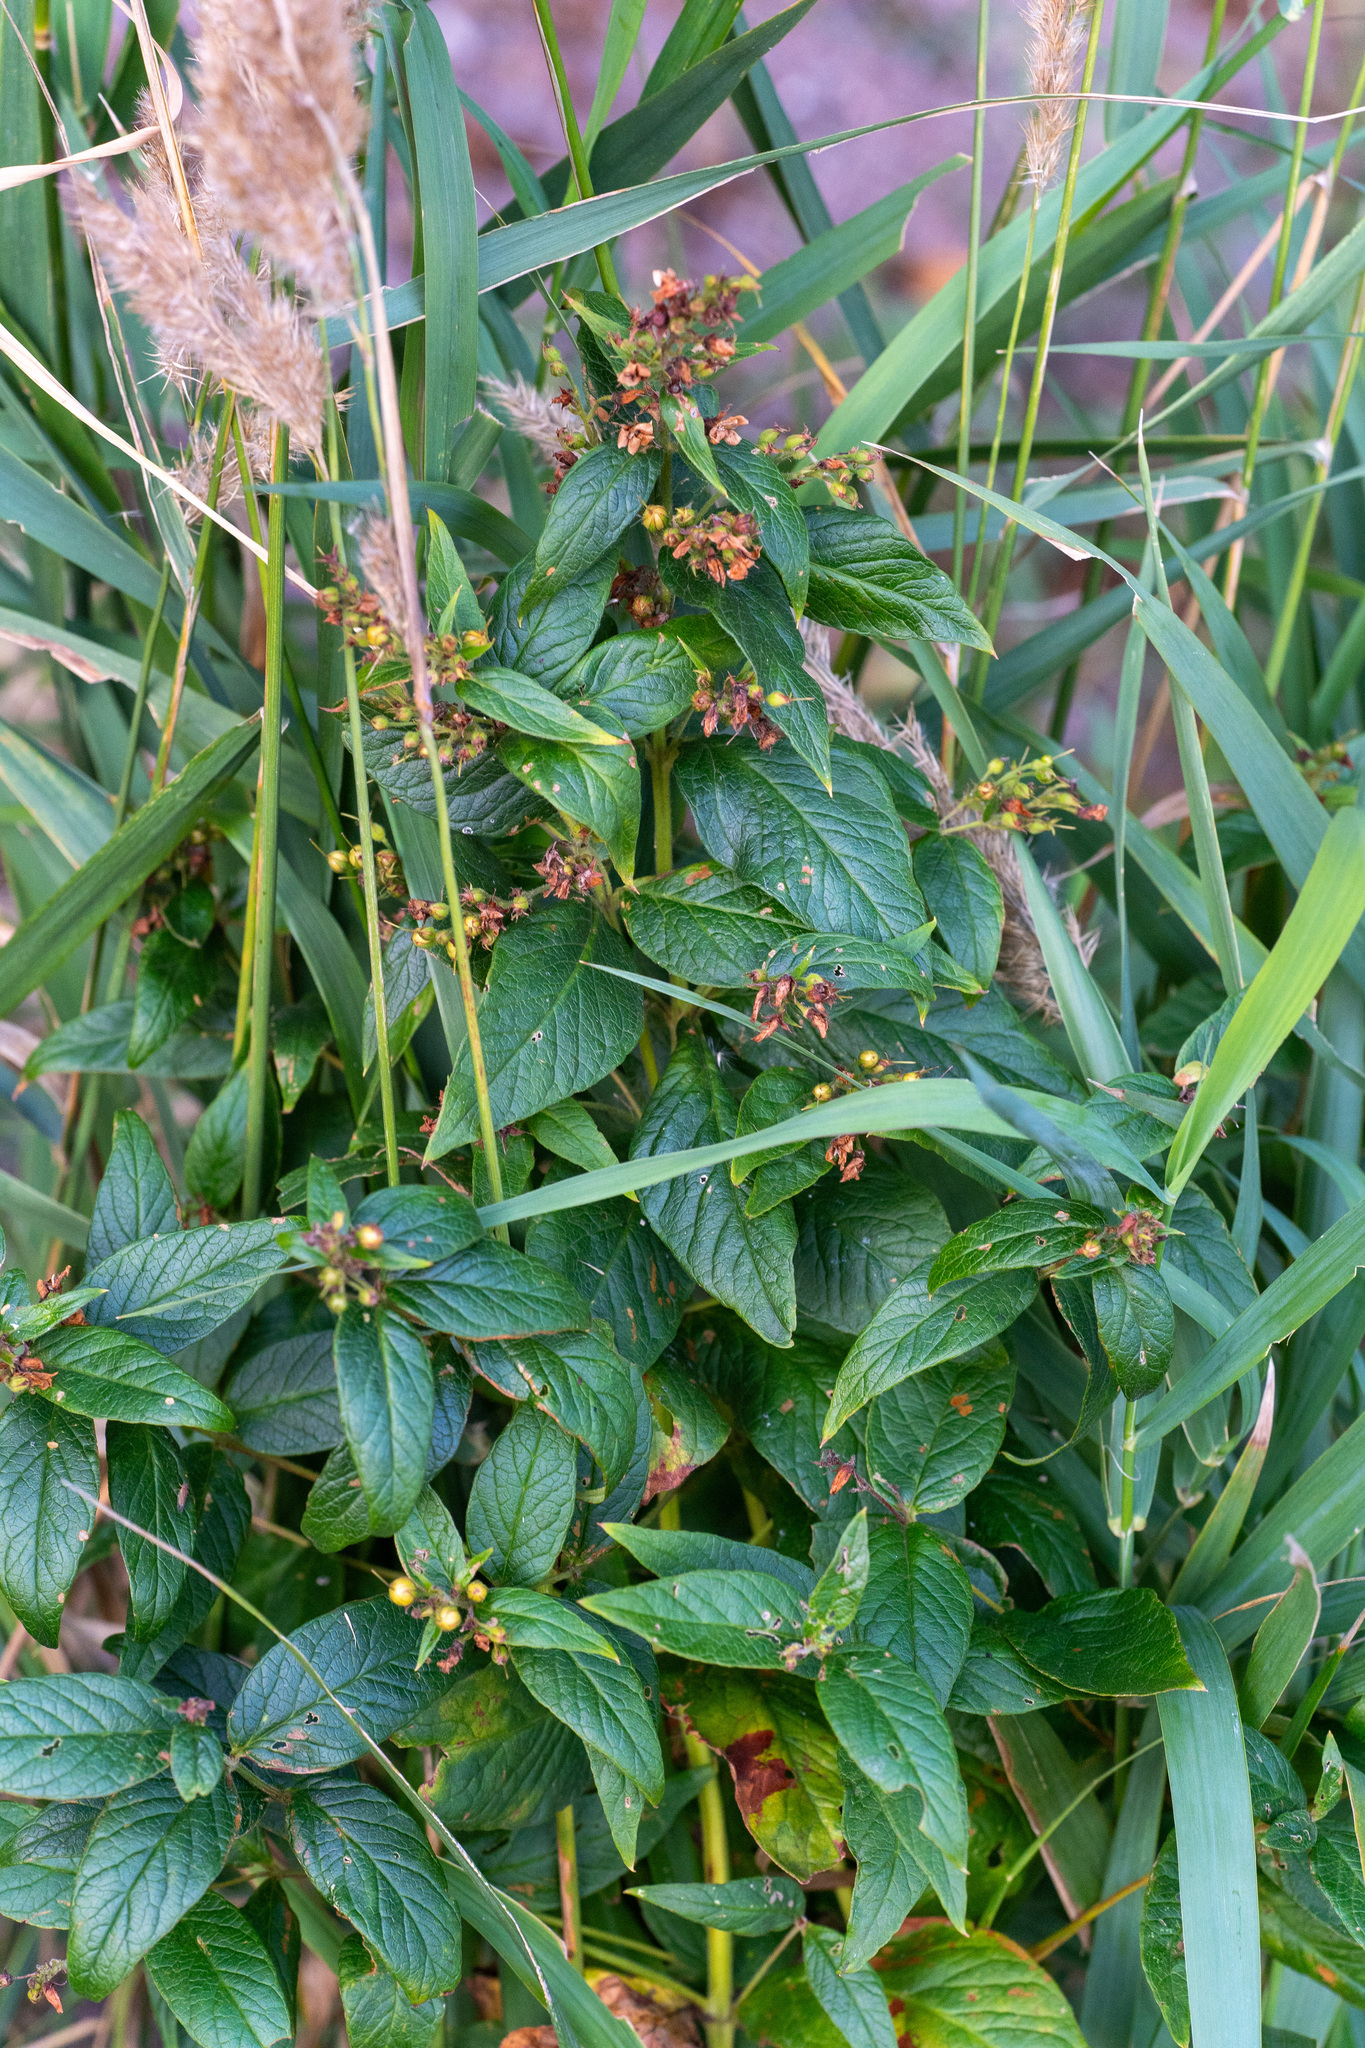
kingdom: Plantae
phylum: Tracheophyta
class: Magnoliopsida
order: Ericales
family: Primulaceae
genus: Lysimachia
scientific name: Lysimachia vulgaris
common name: Yellow loosestrife
